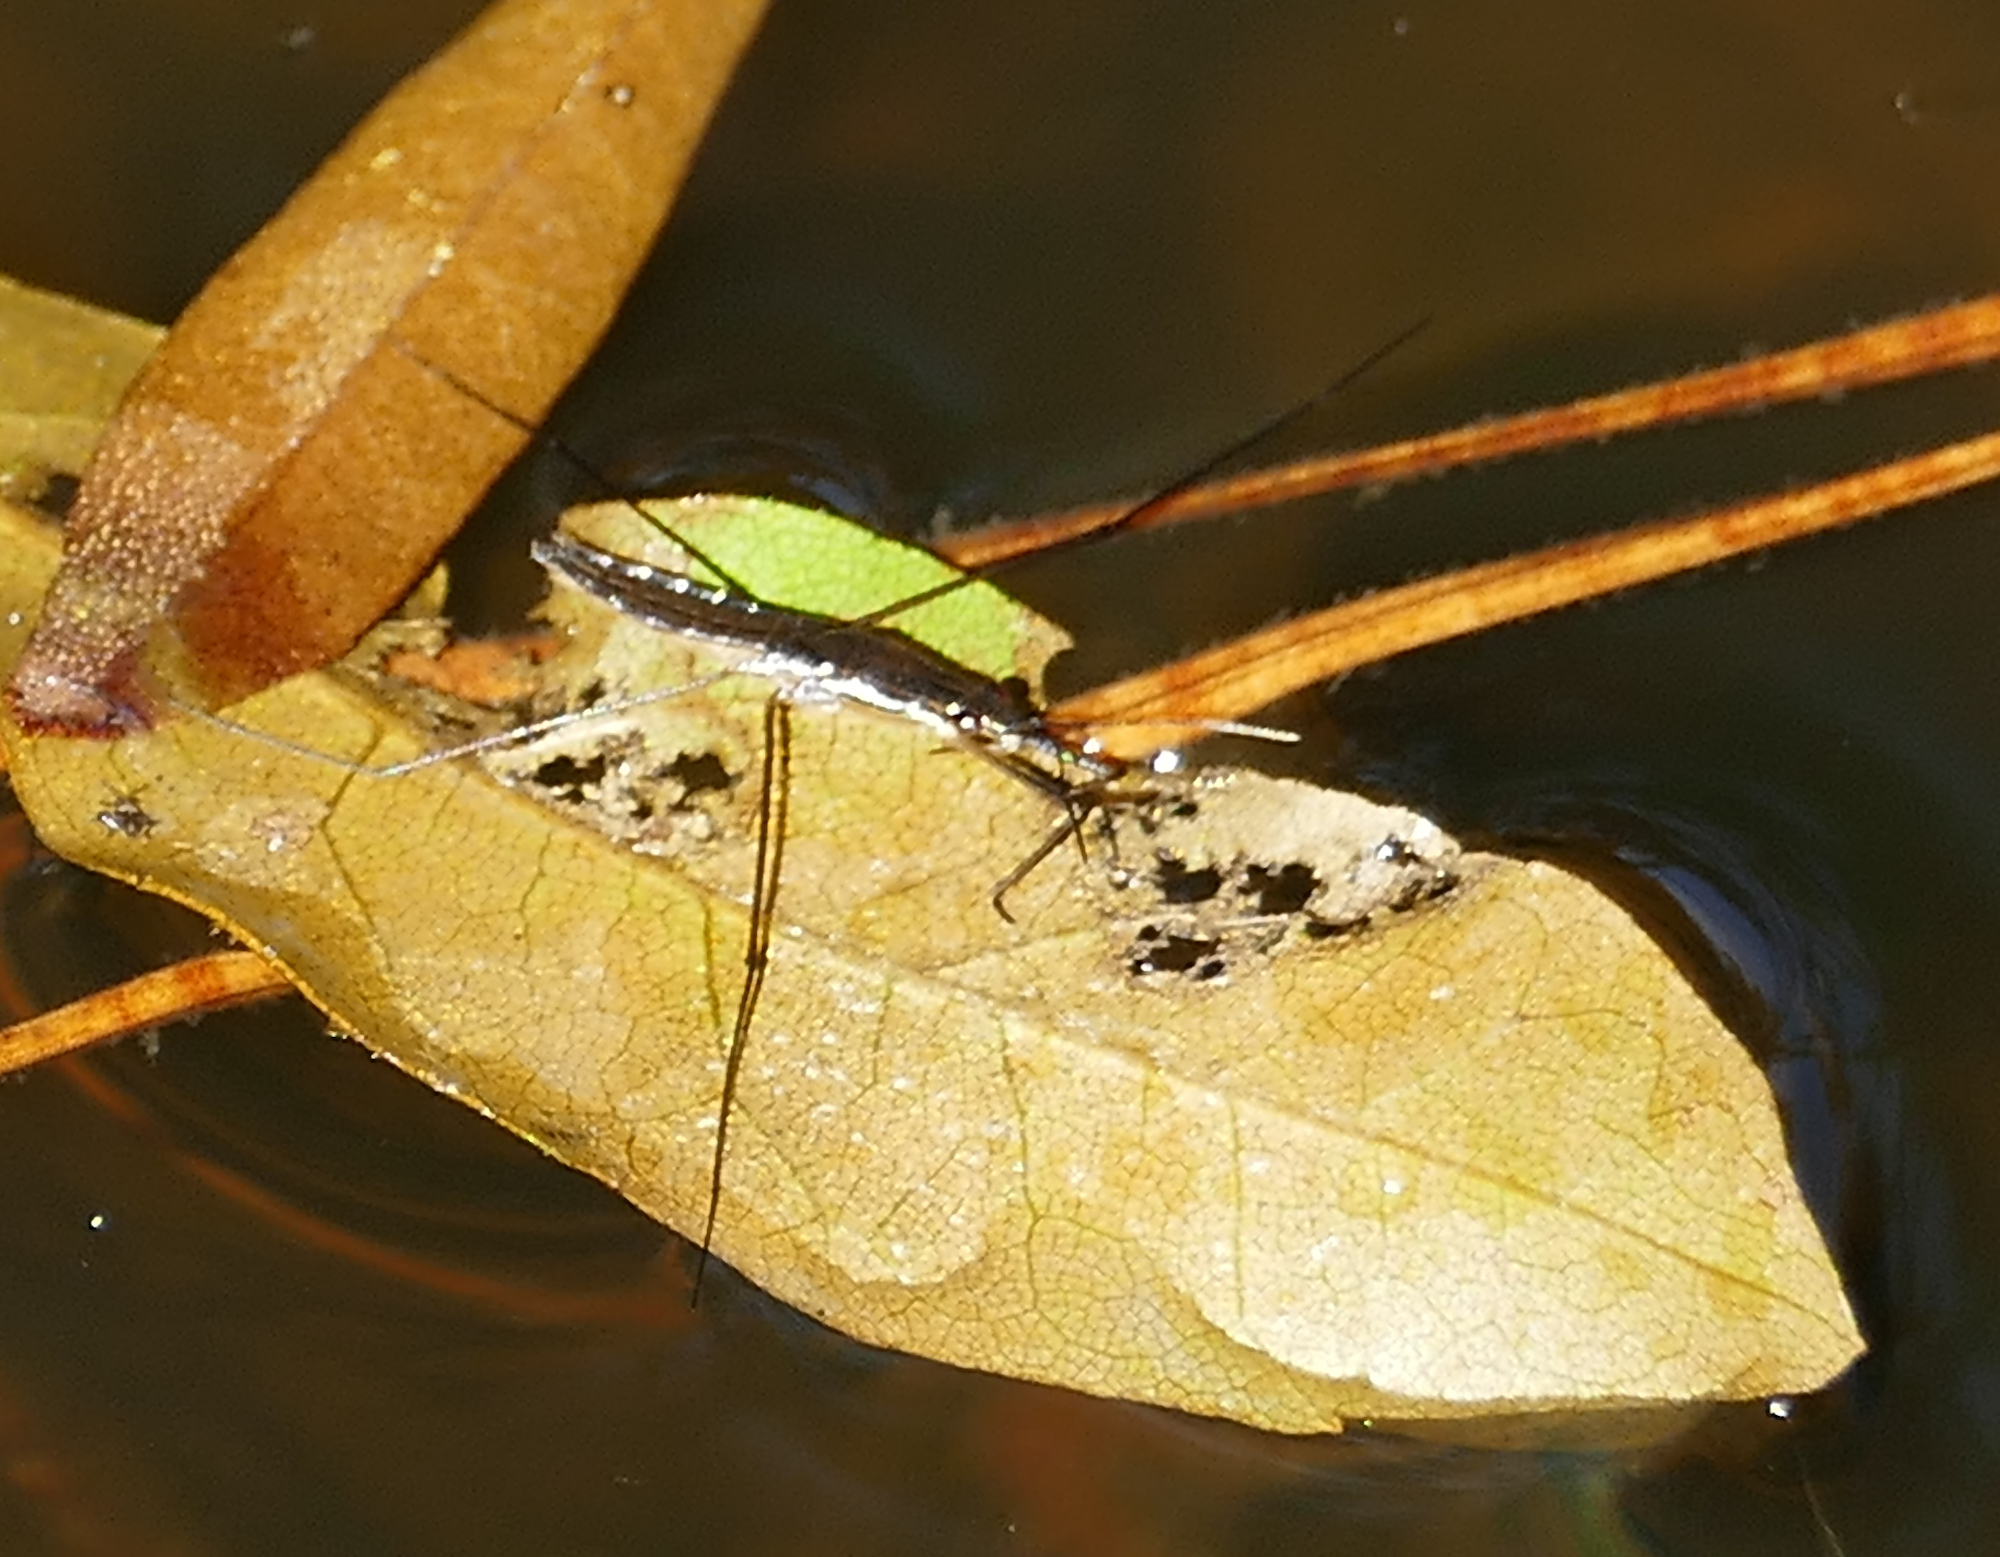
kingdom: Animalia
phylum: Arthropoda
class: Insecta
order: Hemiptera
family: Gerridae
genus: Limnoporus
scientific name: Limnoporus canaliculatus
